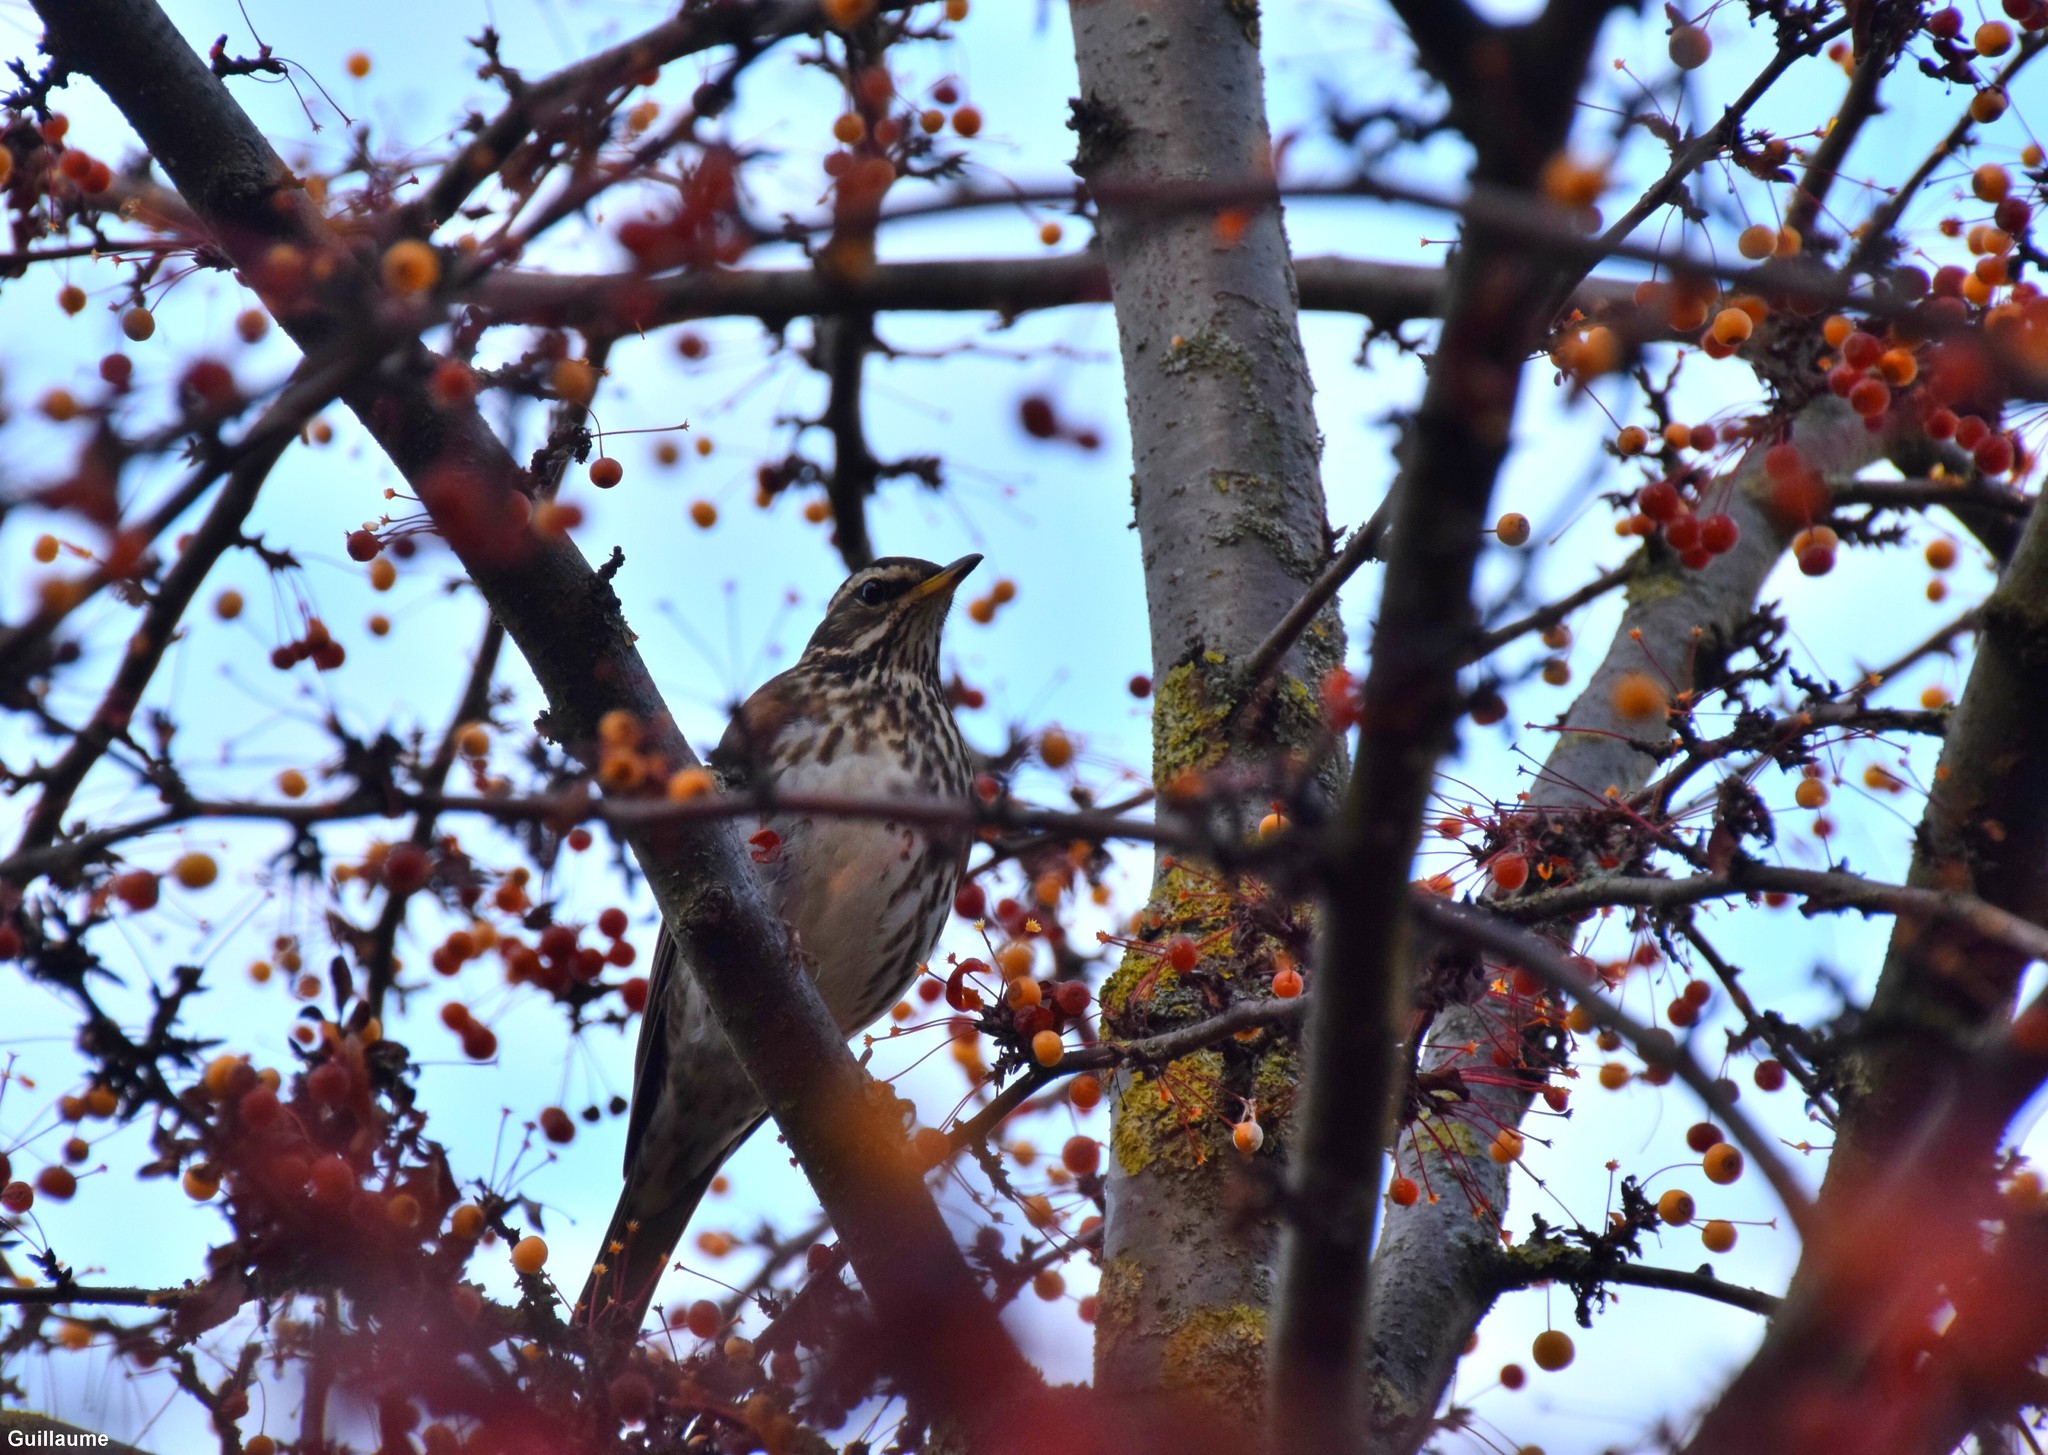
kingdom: Animalia
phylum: Chordata
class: Aves
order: Passeriformes
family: Turdidae
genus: Turdus
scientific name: Turdus iliacus
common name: Redwing
